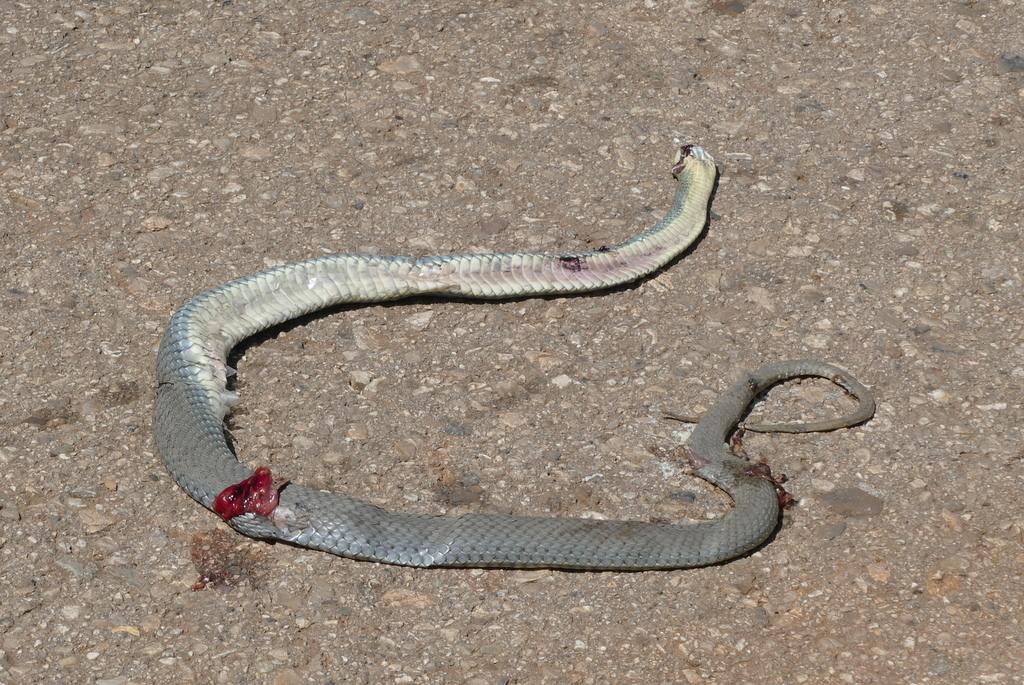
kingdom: Animalia
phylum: Chordata
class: Squamata
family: Psammophiidae
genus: Malpolon
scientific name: Malpolon insignitus
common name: Eastern montpellier snake
